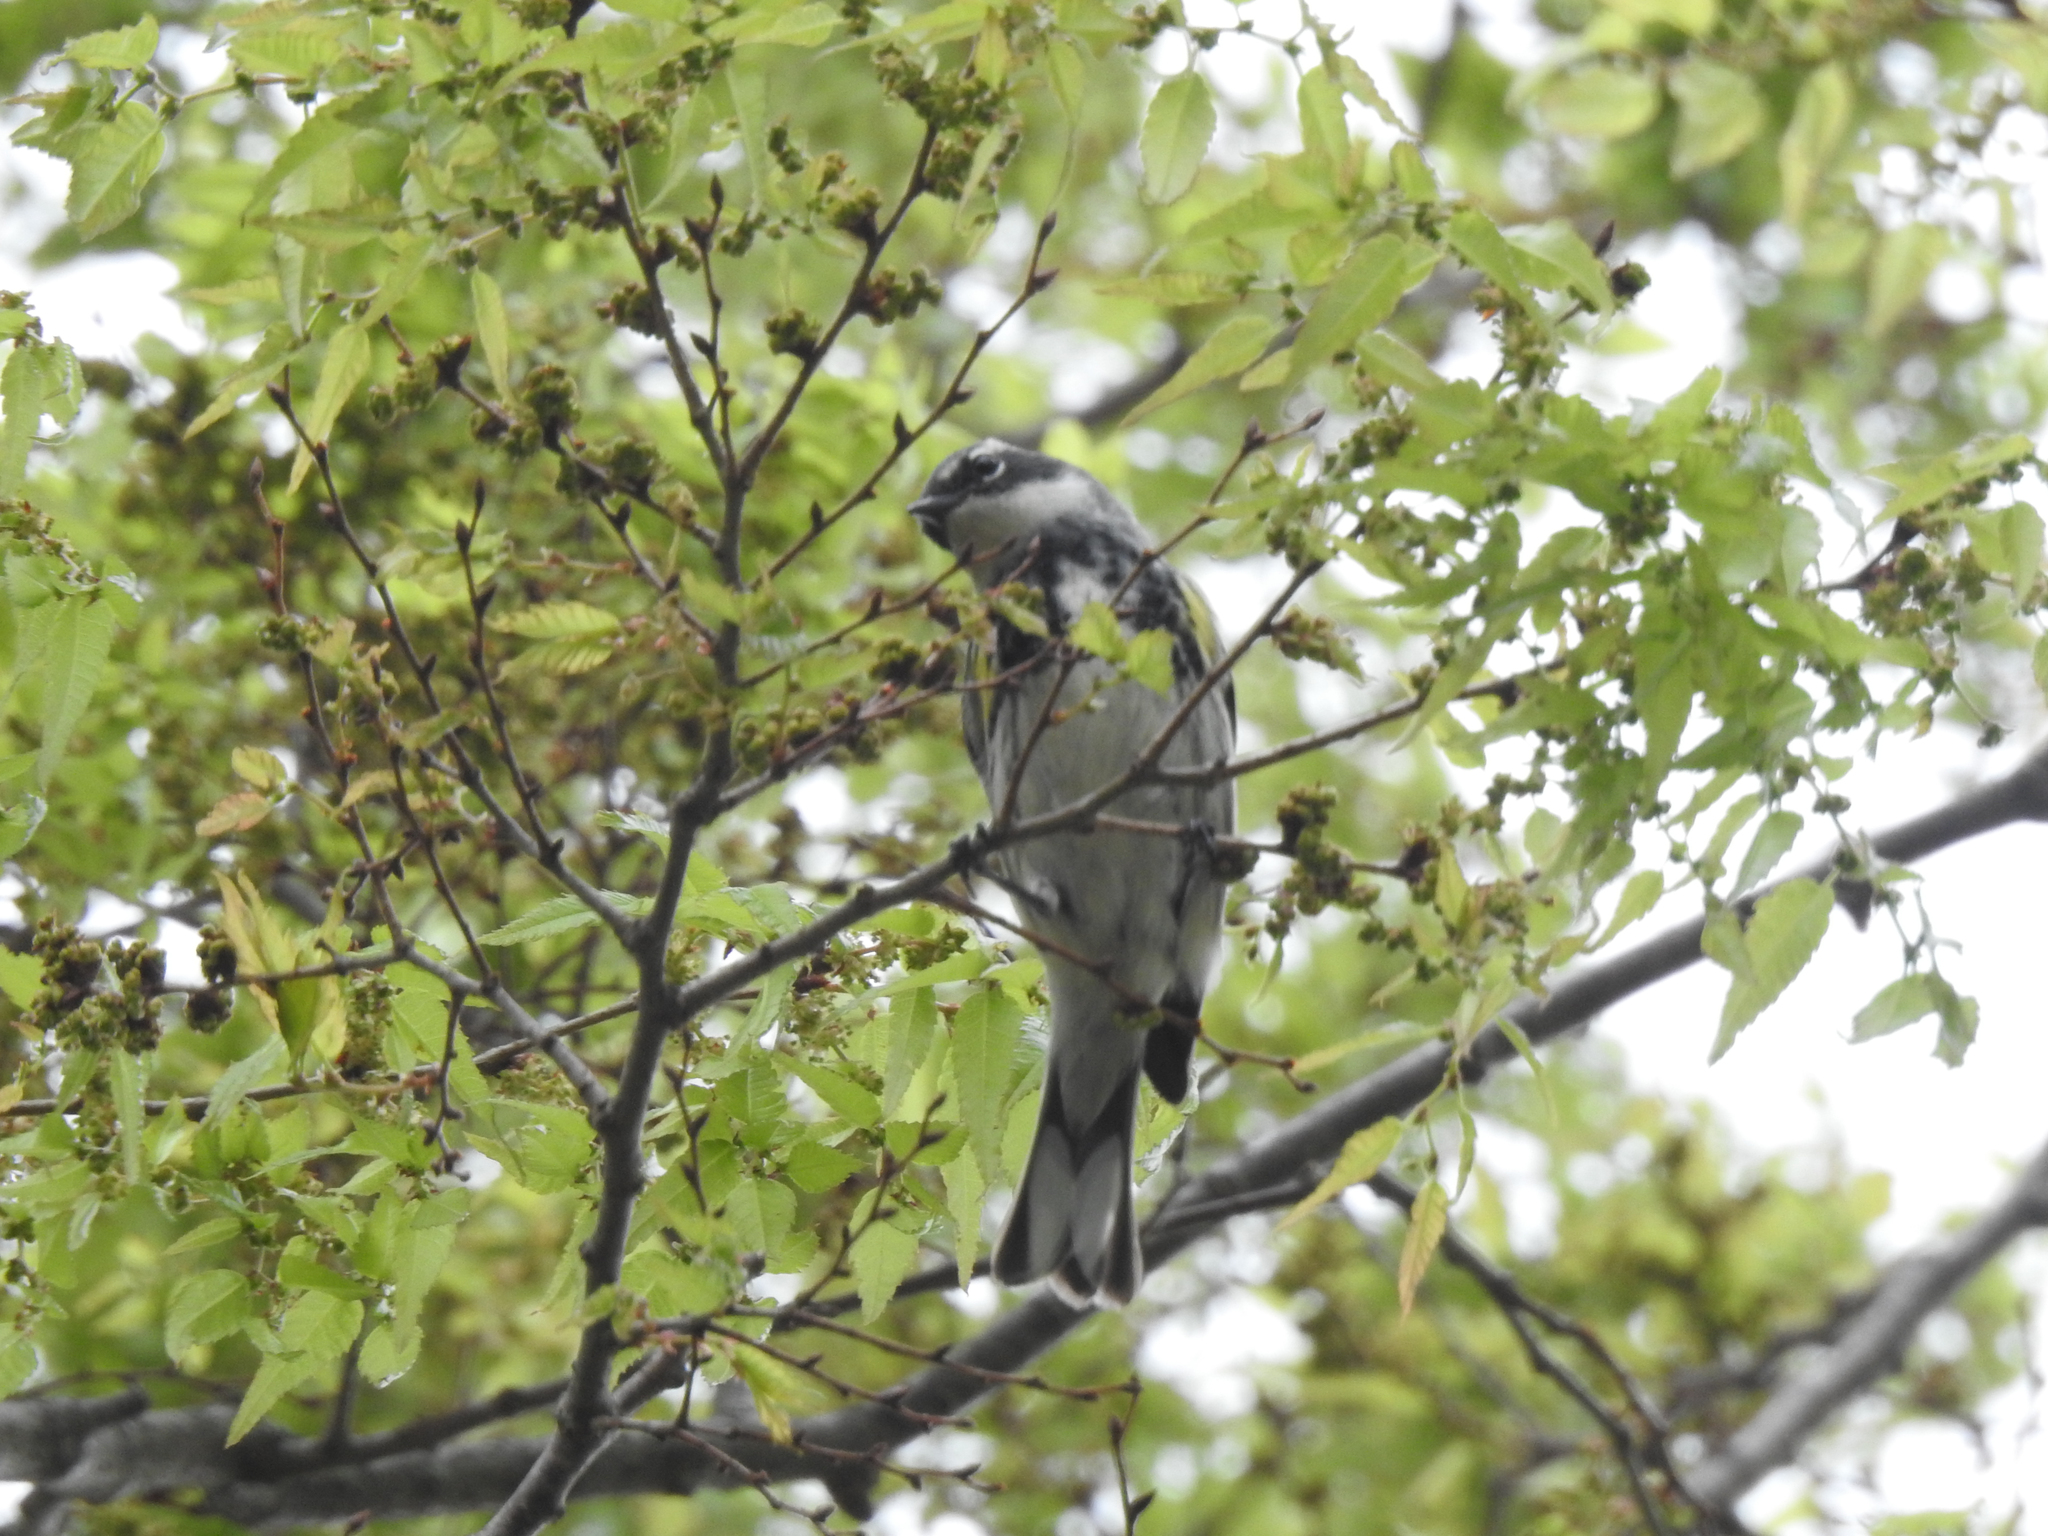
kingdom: Animalia
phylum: Chordata
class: Aves
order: Passeriformes
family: Parulidae
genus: Setophaga
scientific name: Setophaga coronata
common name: Myrtle warbler
